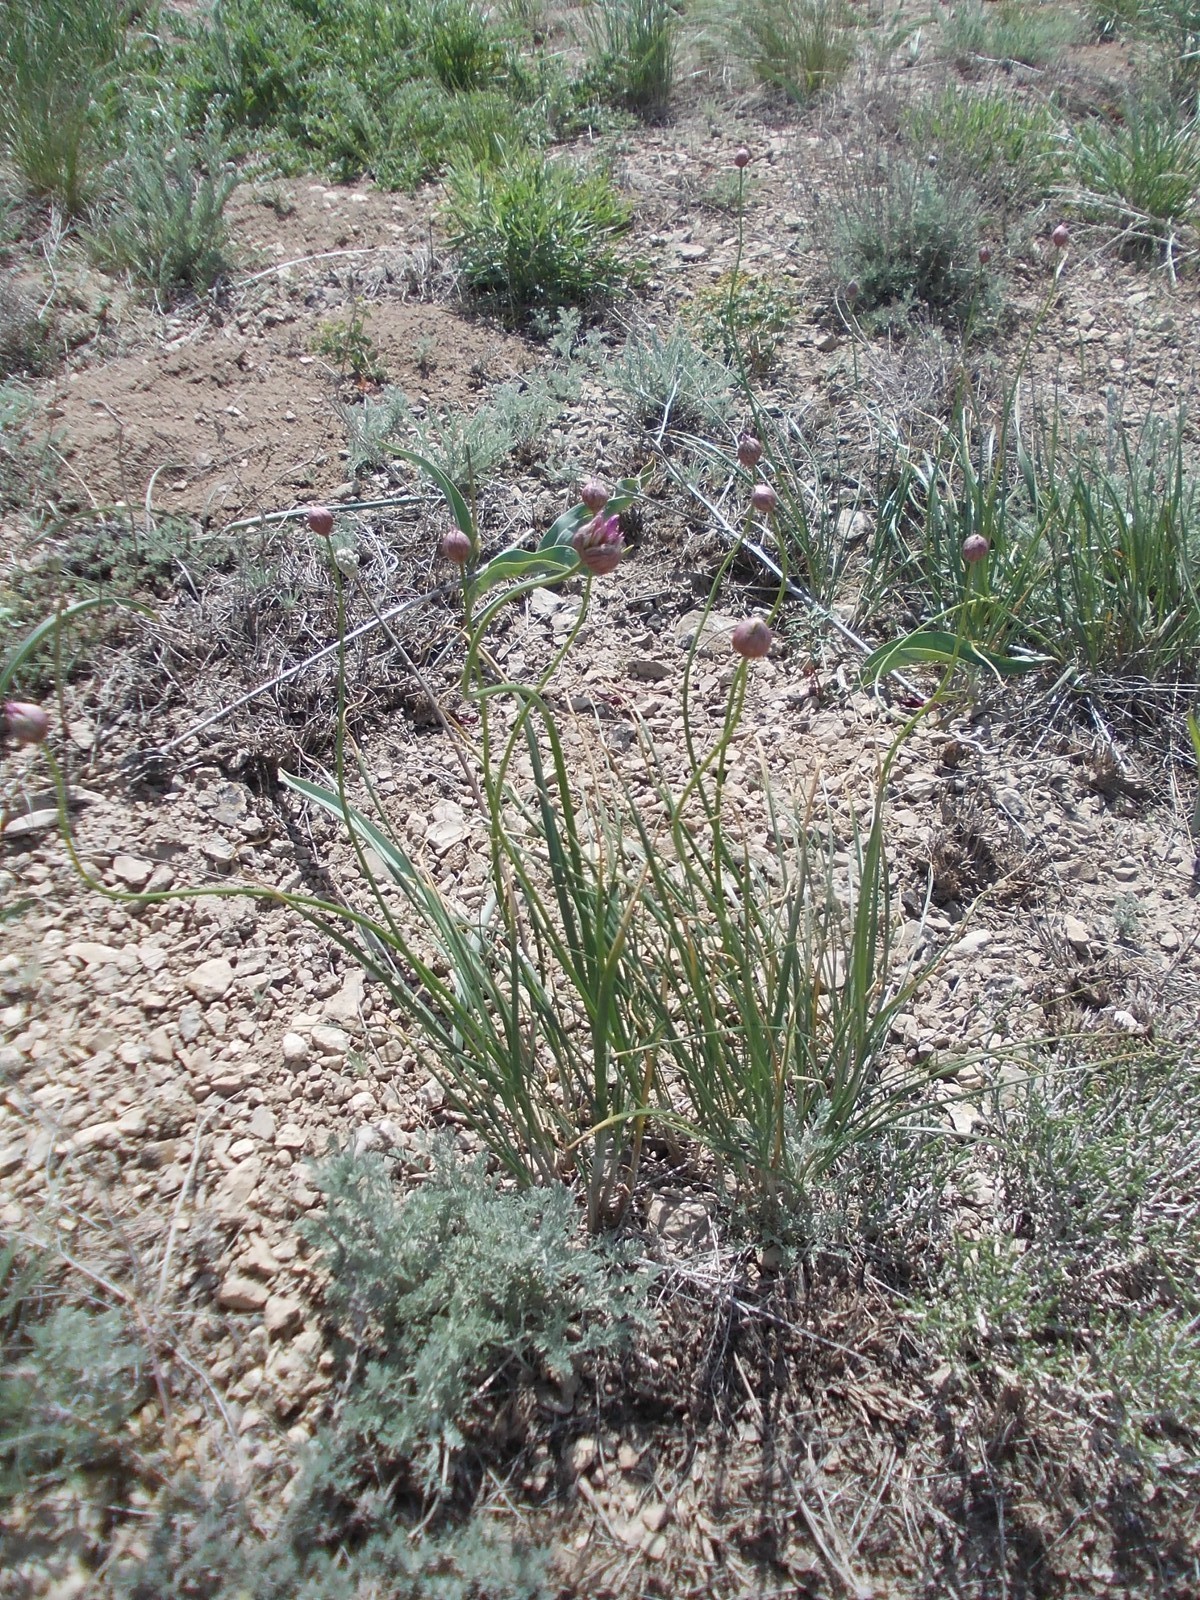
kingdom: Plantae
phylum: Tracheophyta
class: Liliopsida
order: Asparagales
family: Amaryllidaceae
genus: Allium
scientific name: Allium inderiense
